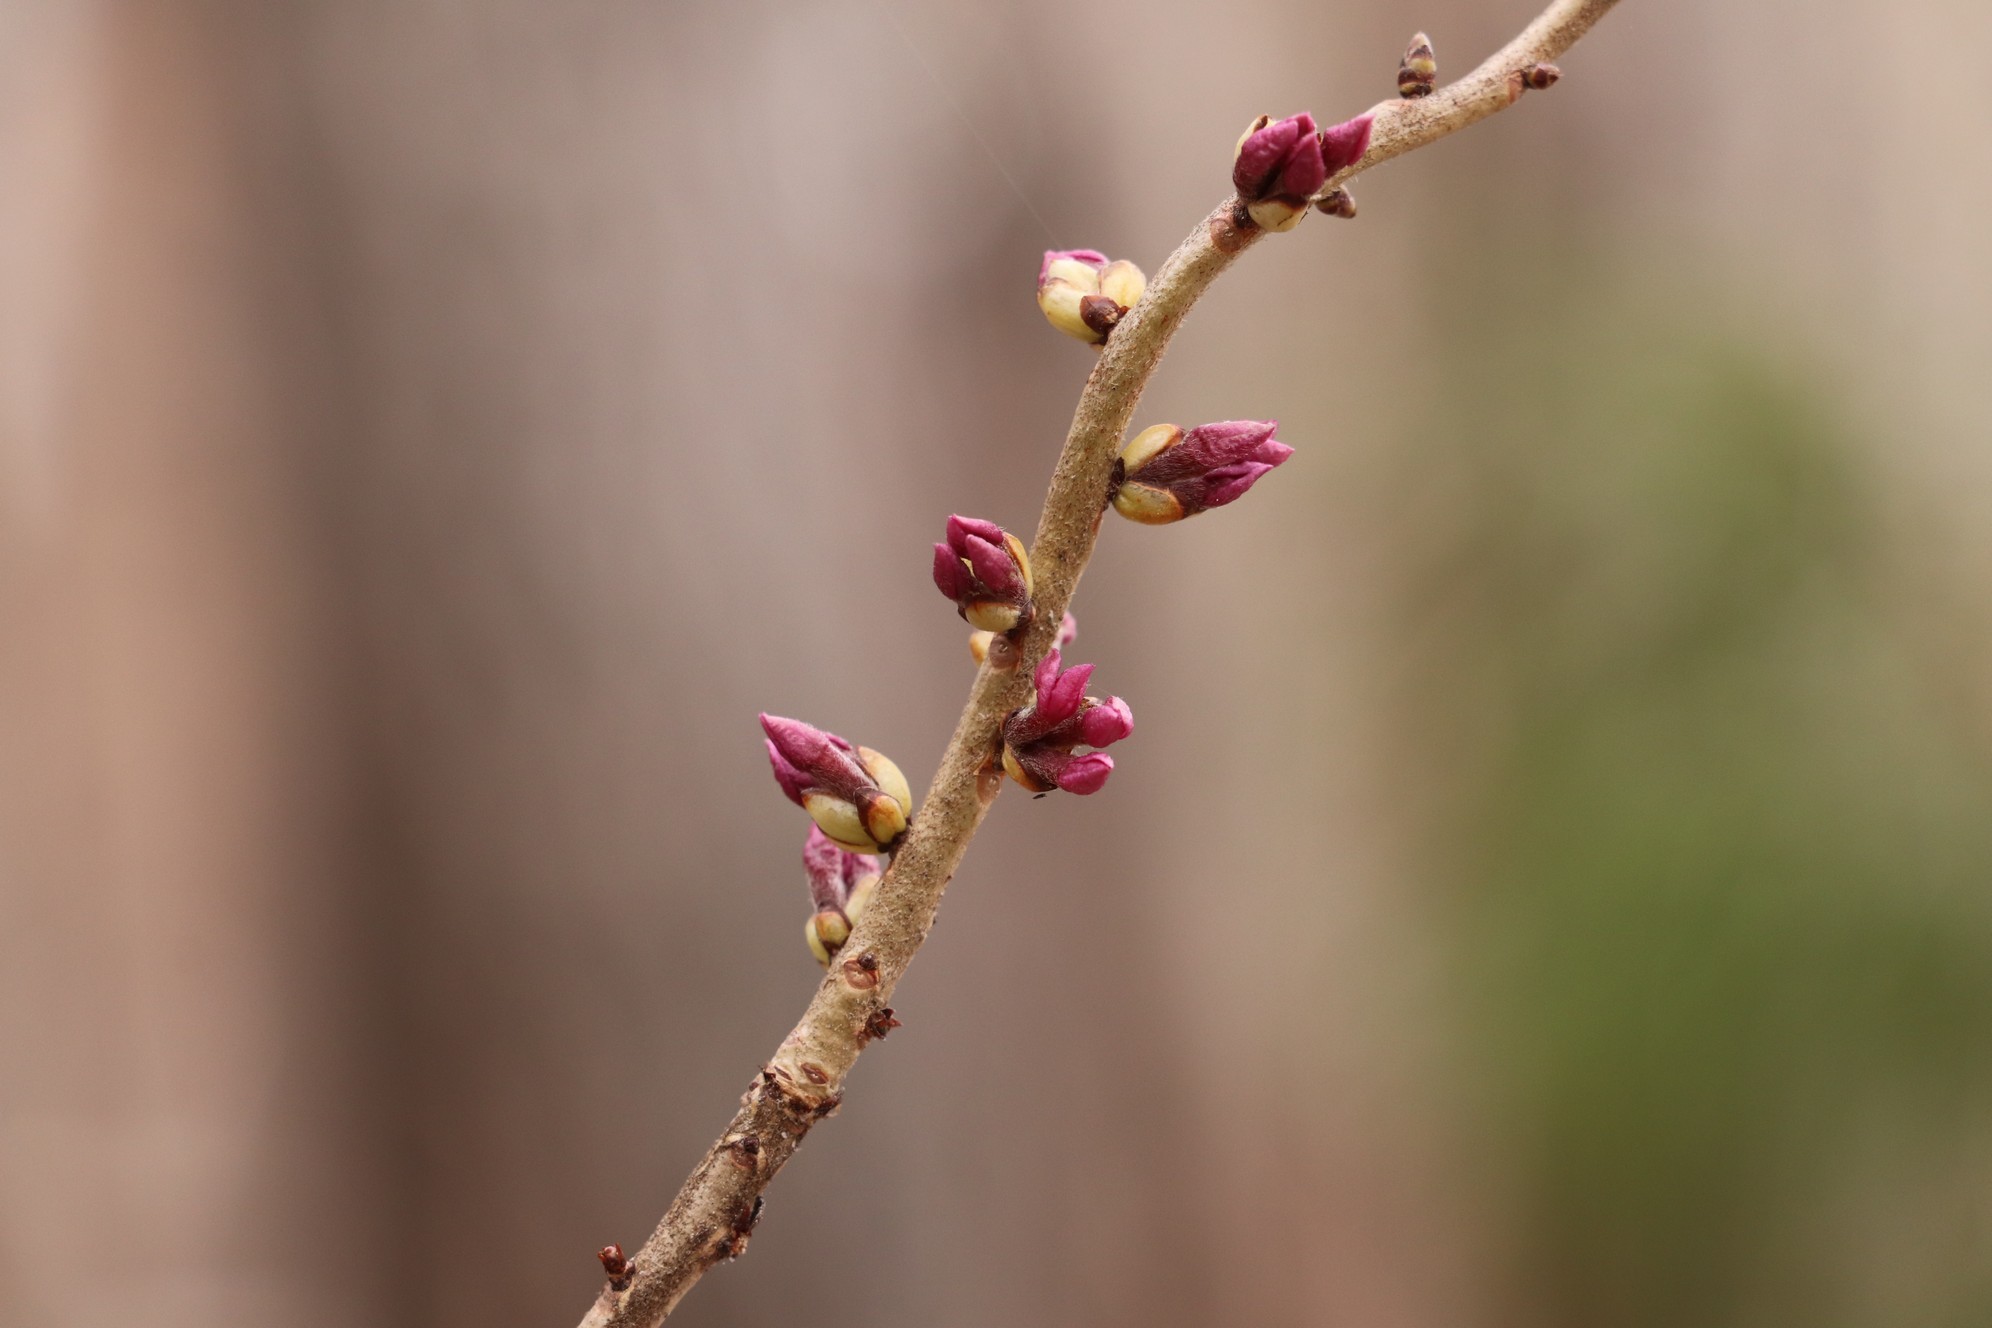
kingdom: Plantae
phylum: Tracheophyta
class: Magnoliopsida
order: Malvales
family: Thymelaeaceae
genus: Daphne
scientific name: Daphne mezereum
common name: Mezereon
